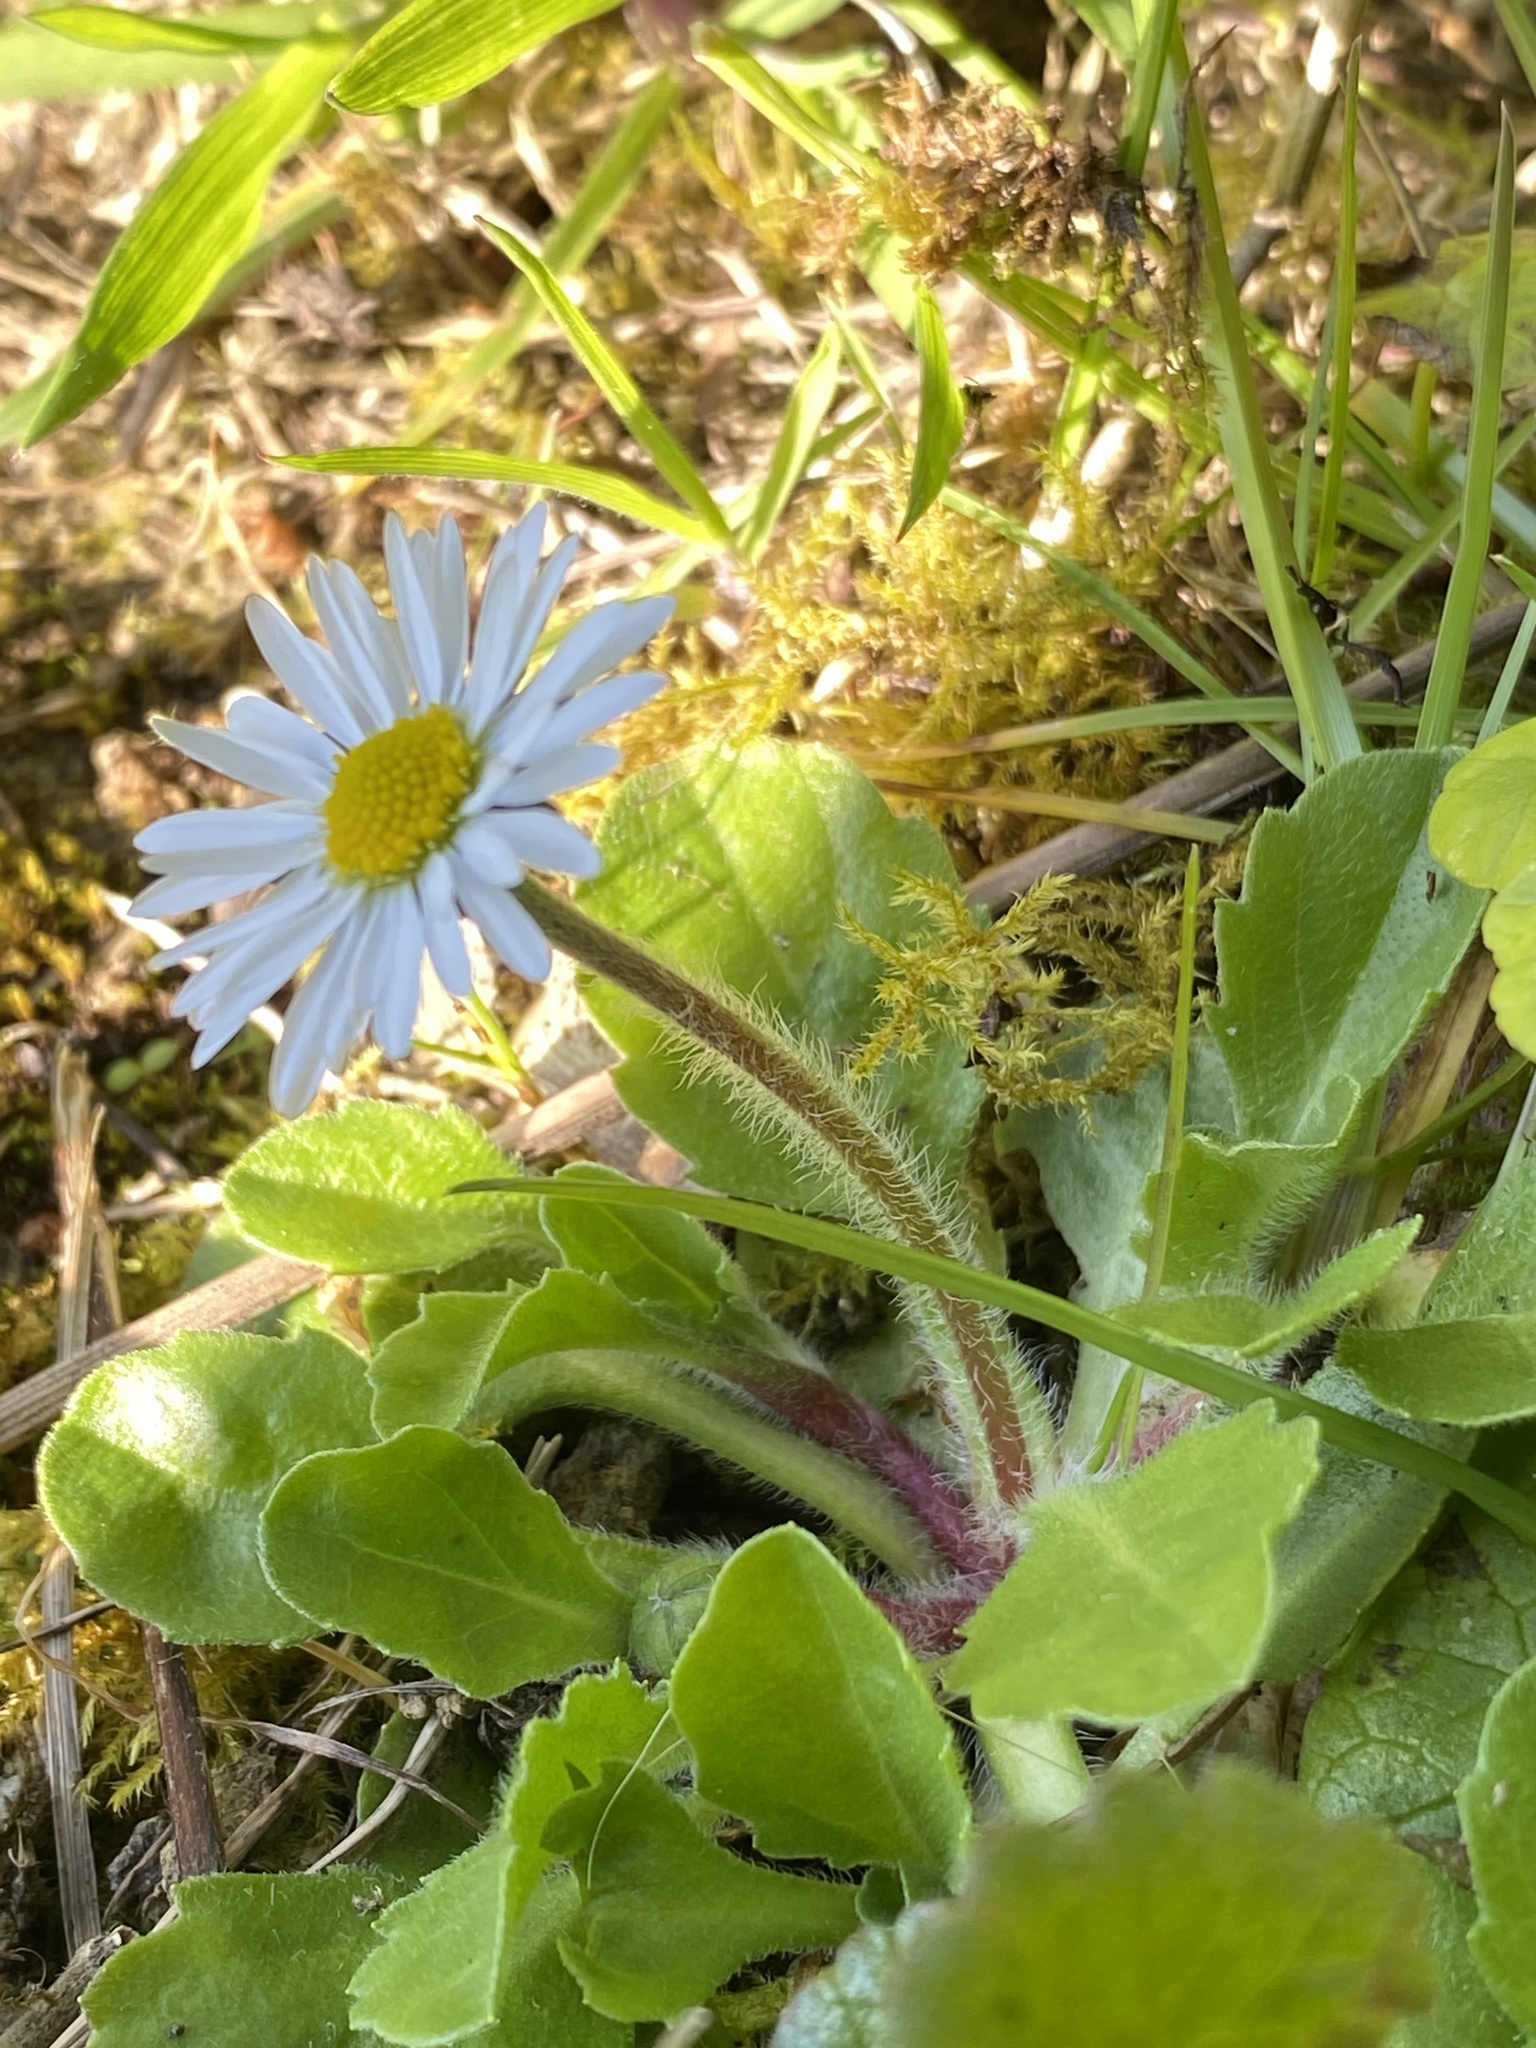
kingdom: Plantae
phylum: Tracheophyta
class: Magnoliopsida
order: Asterales
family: Asteraceae
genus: Bellis
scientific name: Bellis perennis
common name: Lawndaisy
